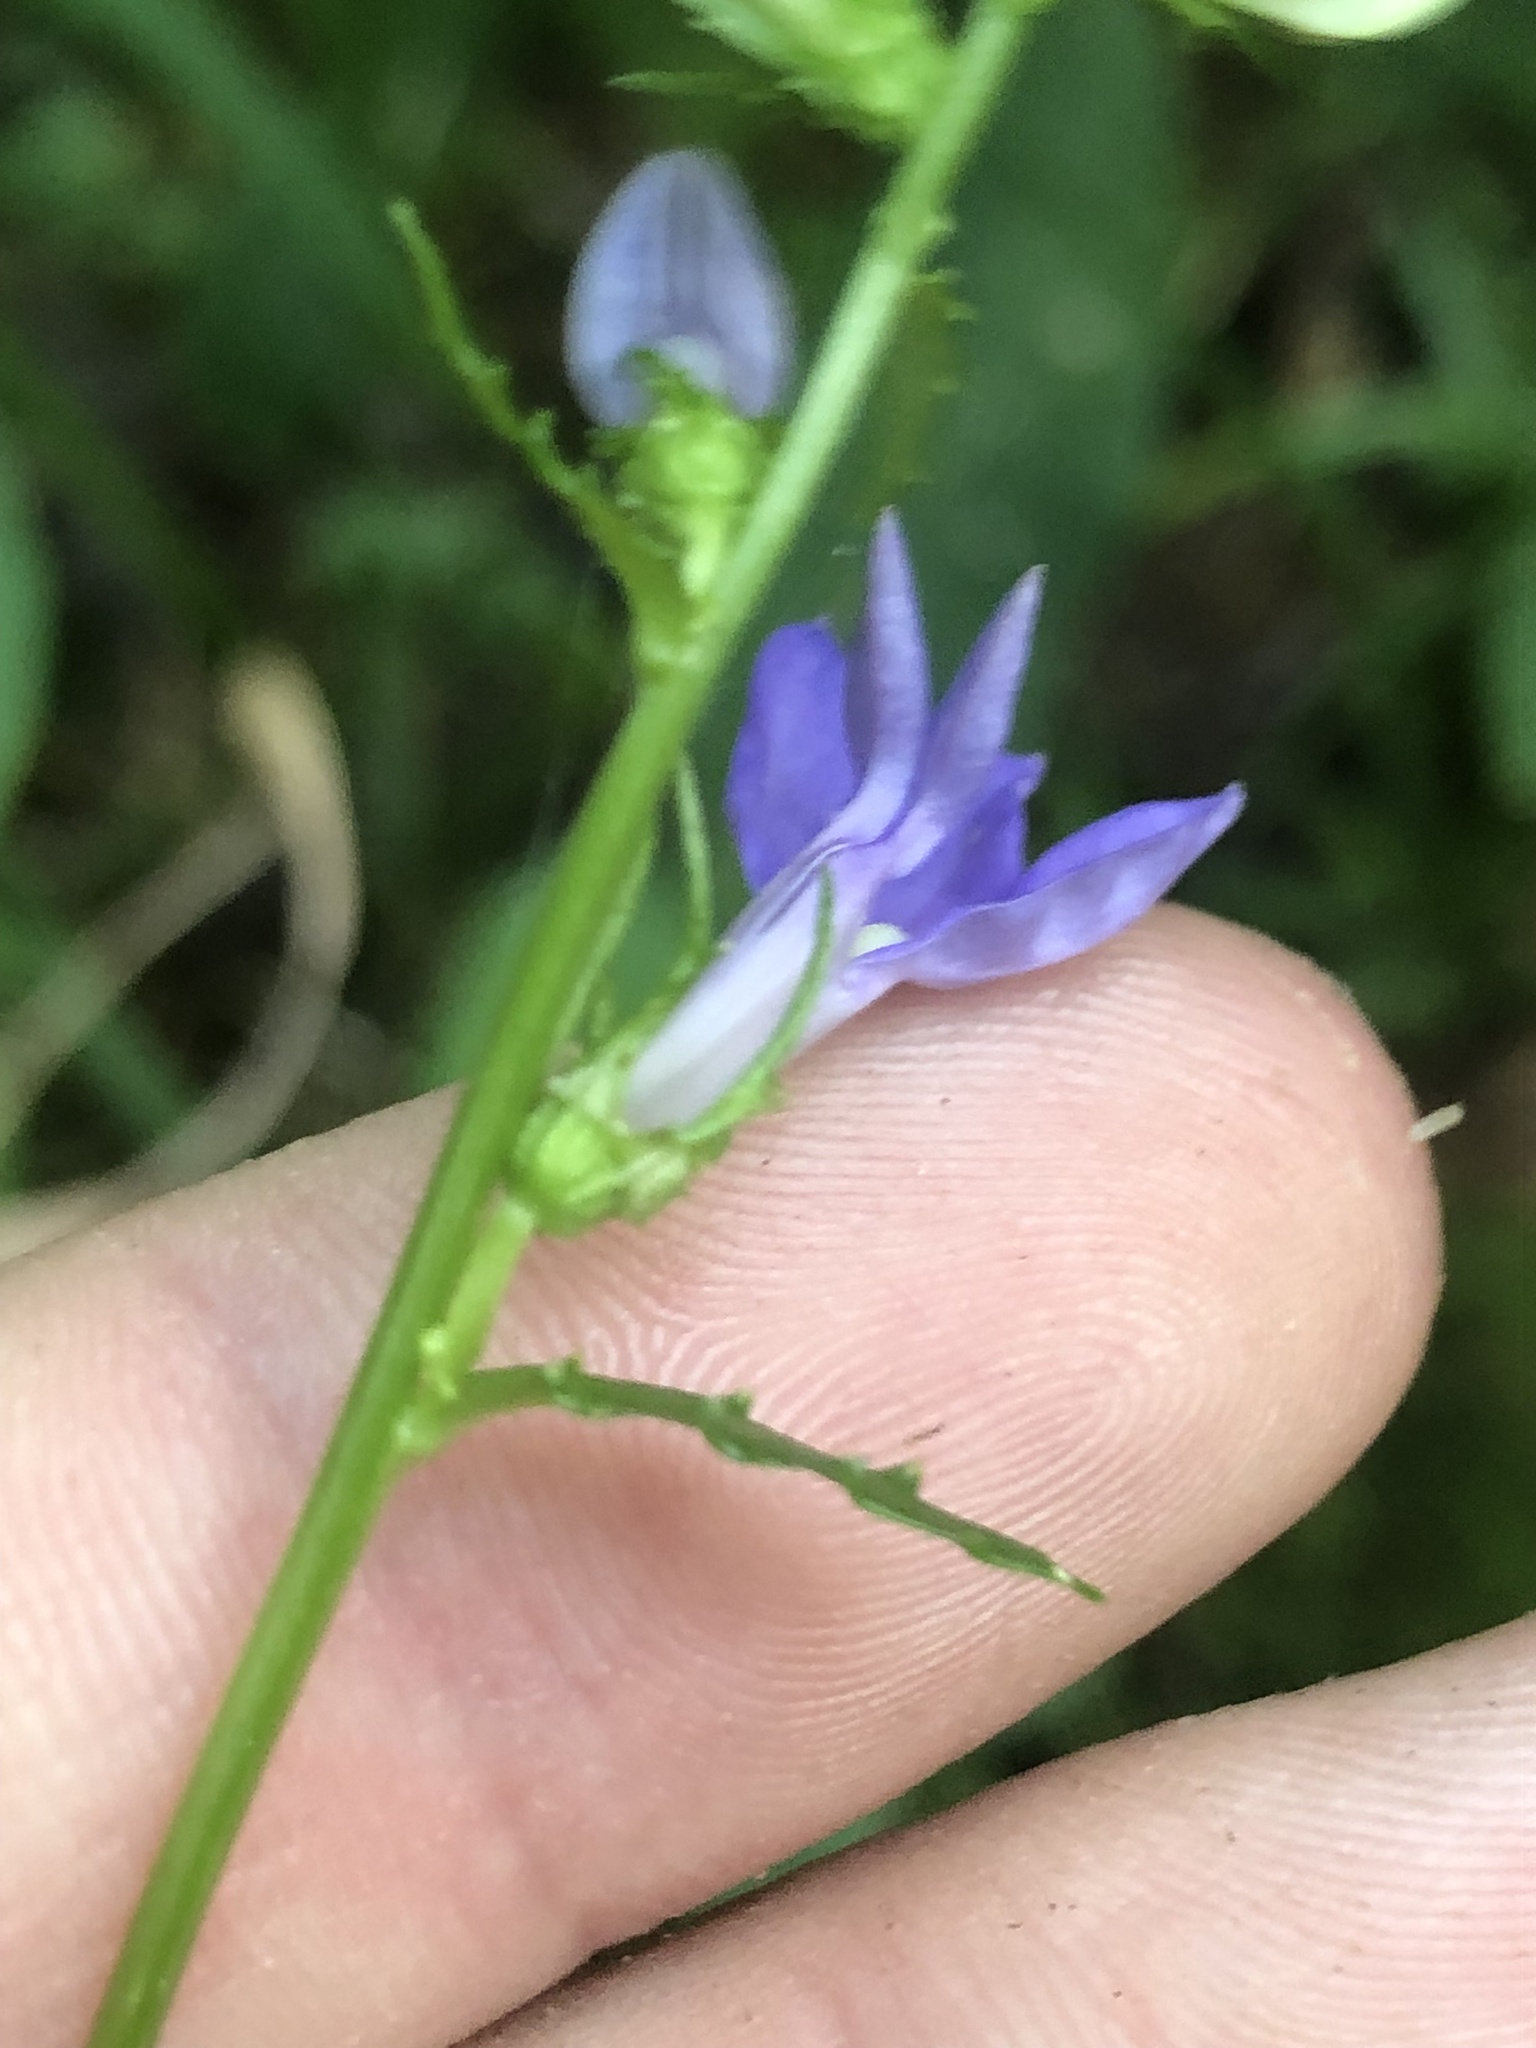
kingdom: Plantae
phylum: Tracheophyta
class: Magnoliopsida
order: Asterales
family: Campanulaceae
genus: Lobelia
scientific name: Lobelia georgiana
